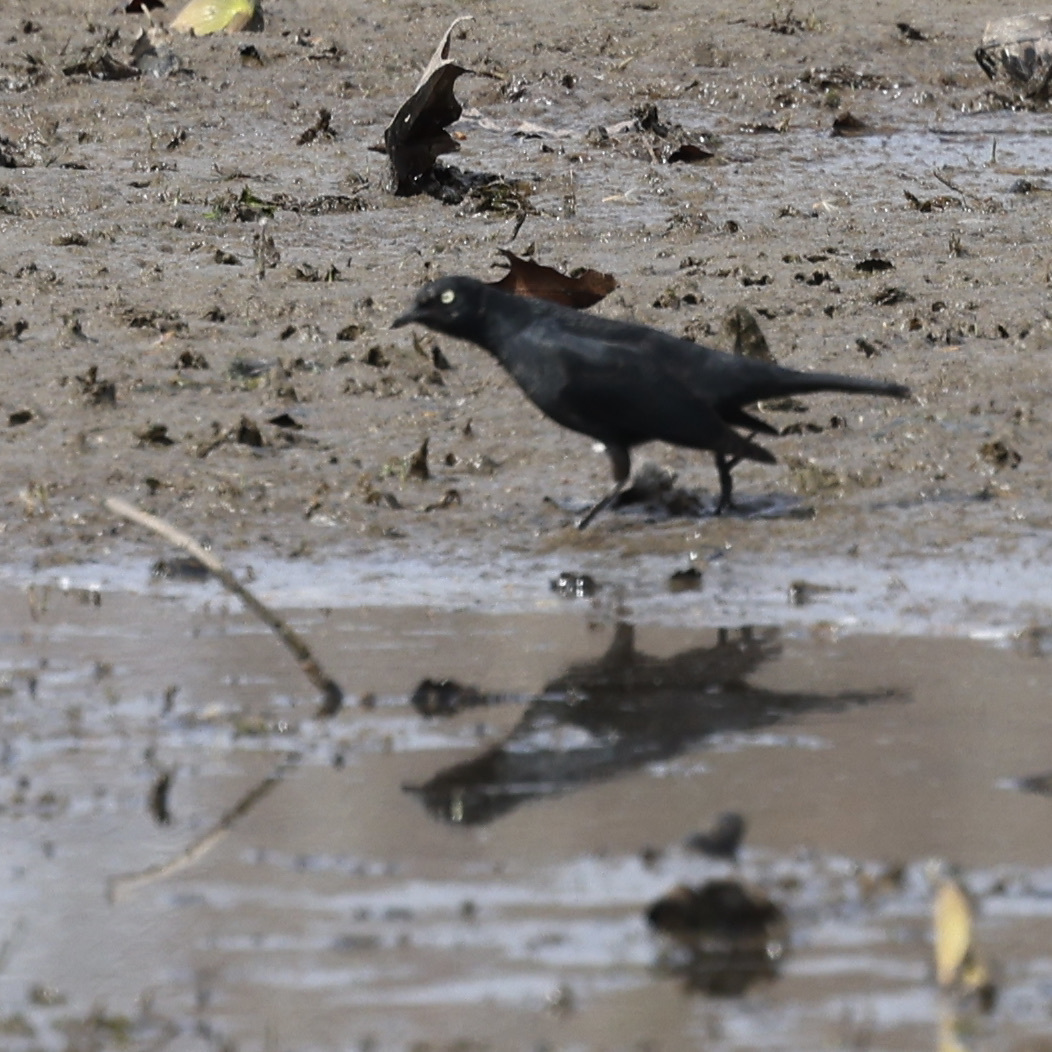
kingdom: Animalia
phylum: Chordata
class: Aves
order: Passeriformes
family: Icteridae
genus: Euphagus
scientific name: Euphagus carolinus
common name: Rusty blackbird
